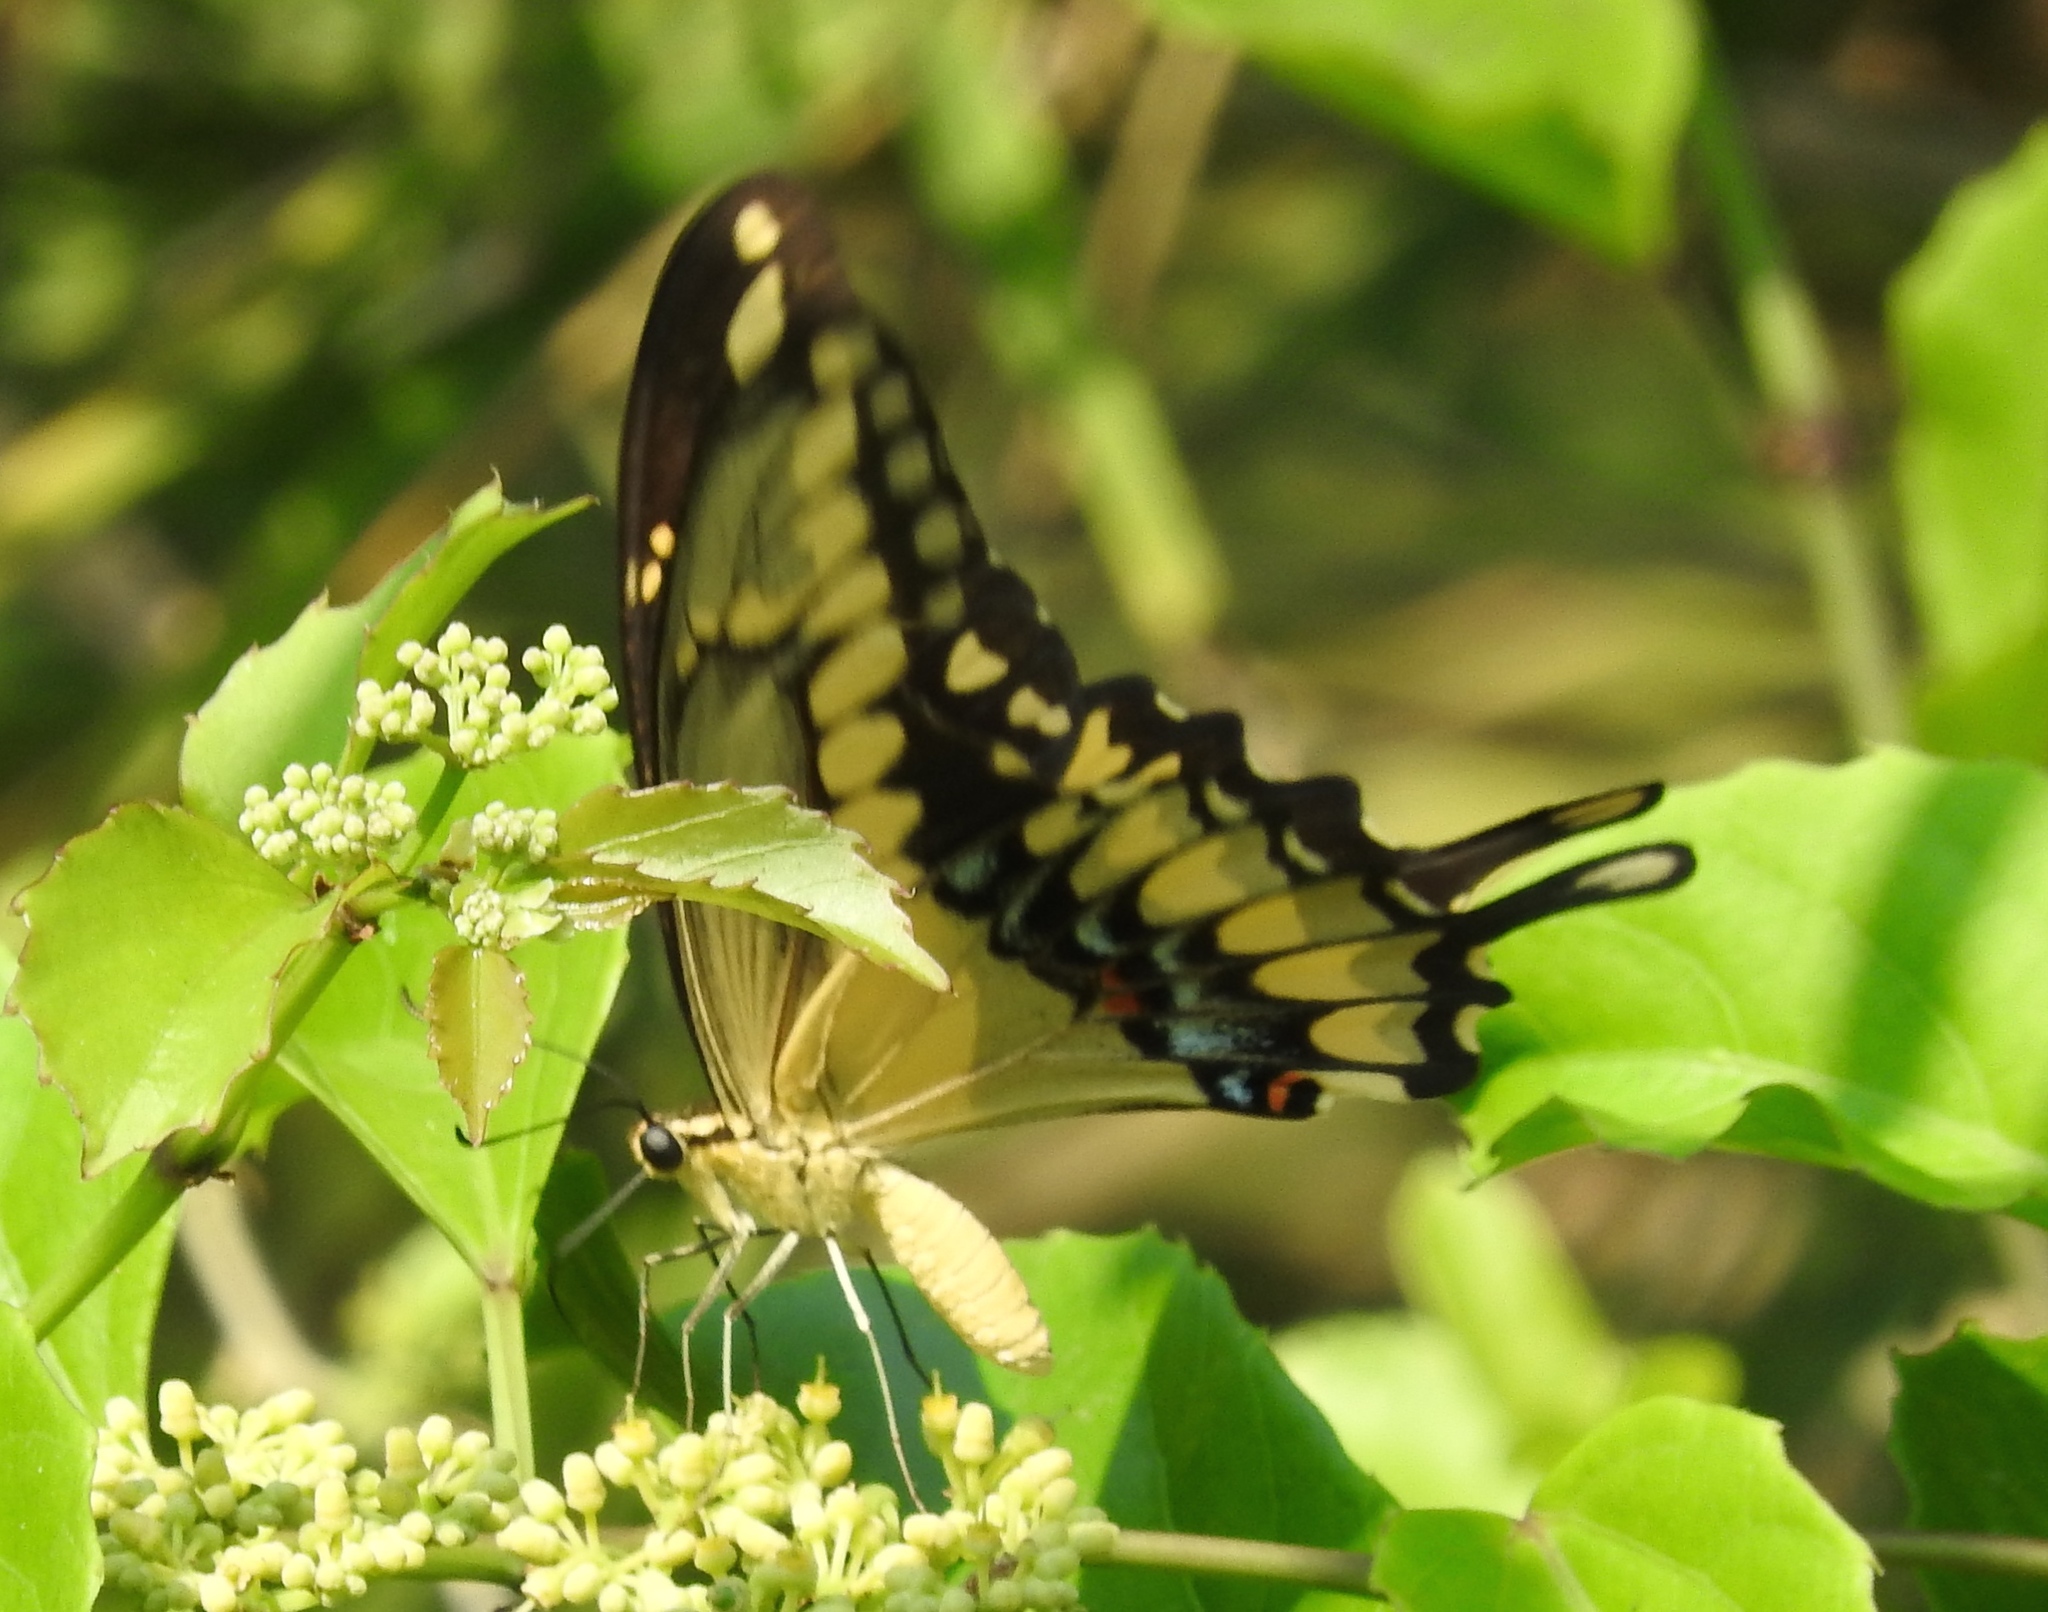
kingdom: Animalia
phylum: Arthropoda
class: Insecta
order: Lepidoptera
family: Papilionidae
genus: Papilio
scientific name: Papilio rumiko
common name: Western giant swallowtail
